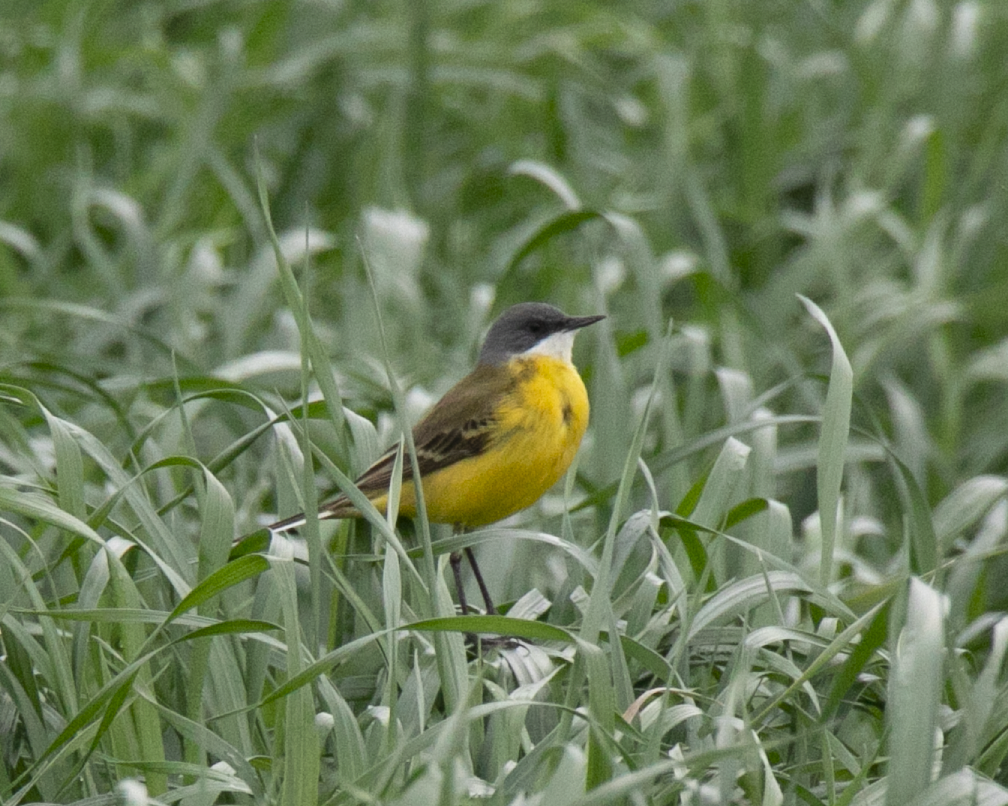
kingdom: Animalia
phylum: Chordata
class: Aves
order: Passeriformes
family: Motacillidae
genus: Motacilla
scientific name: Motacilla flava
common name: Western yellow wagtail
